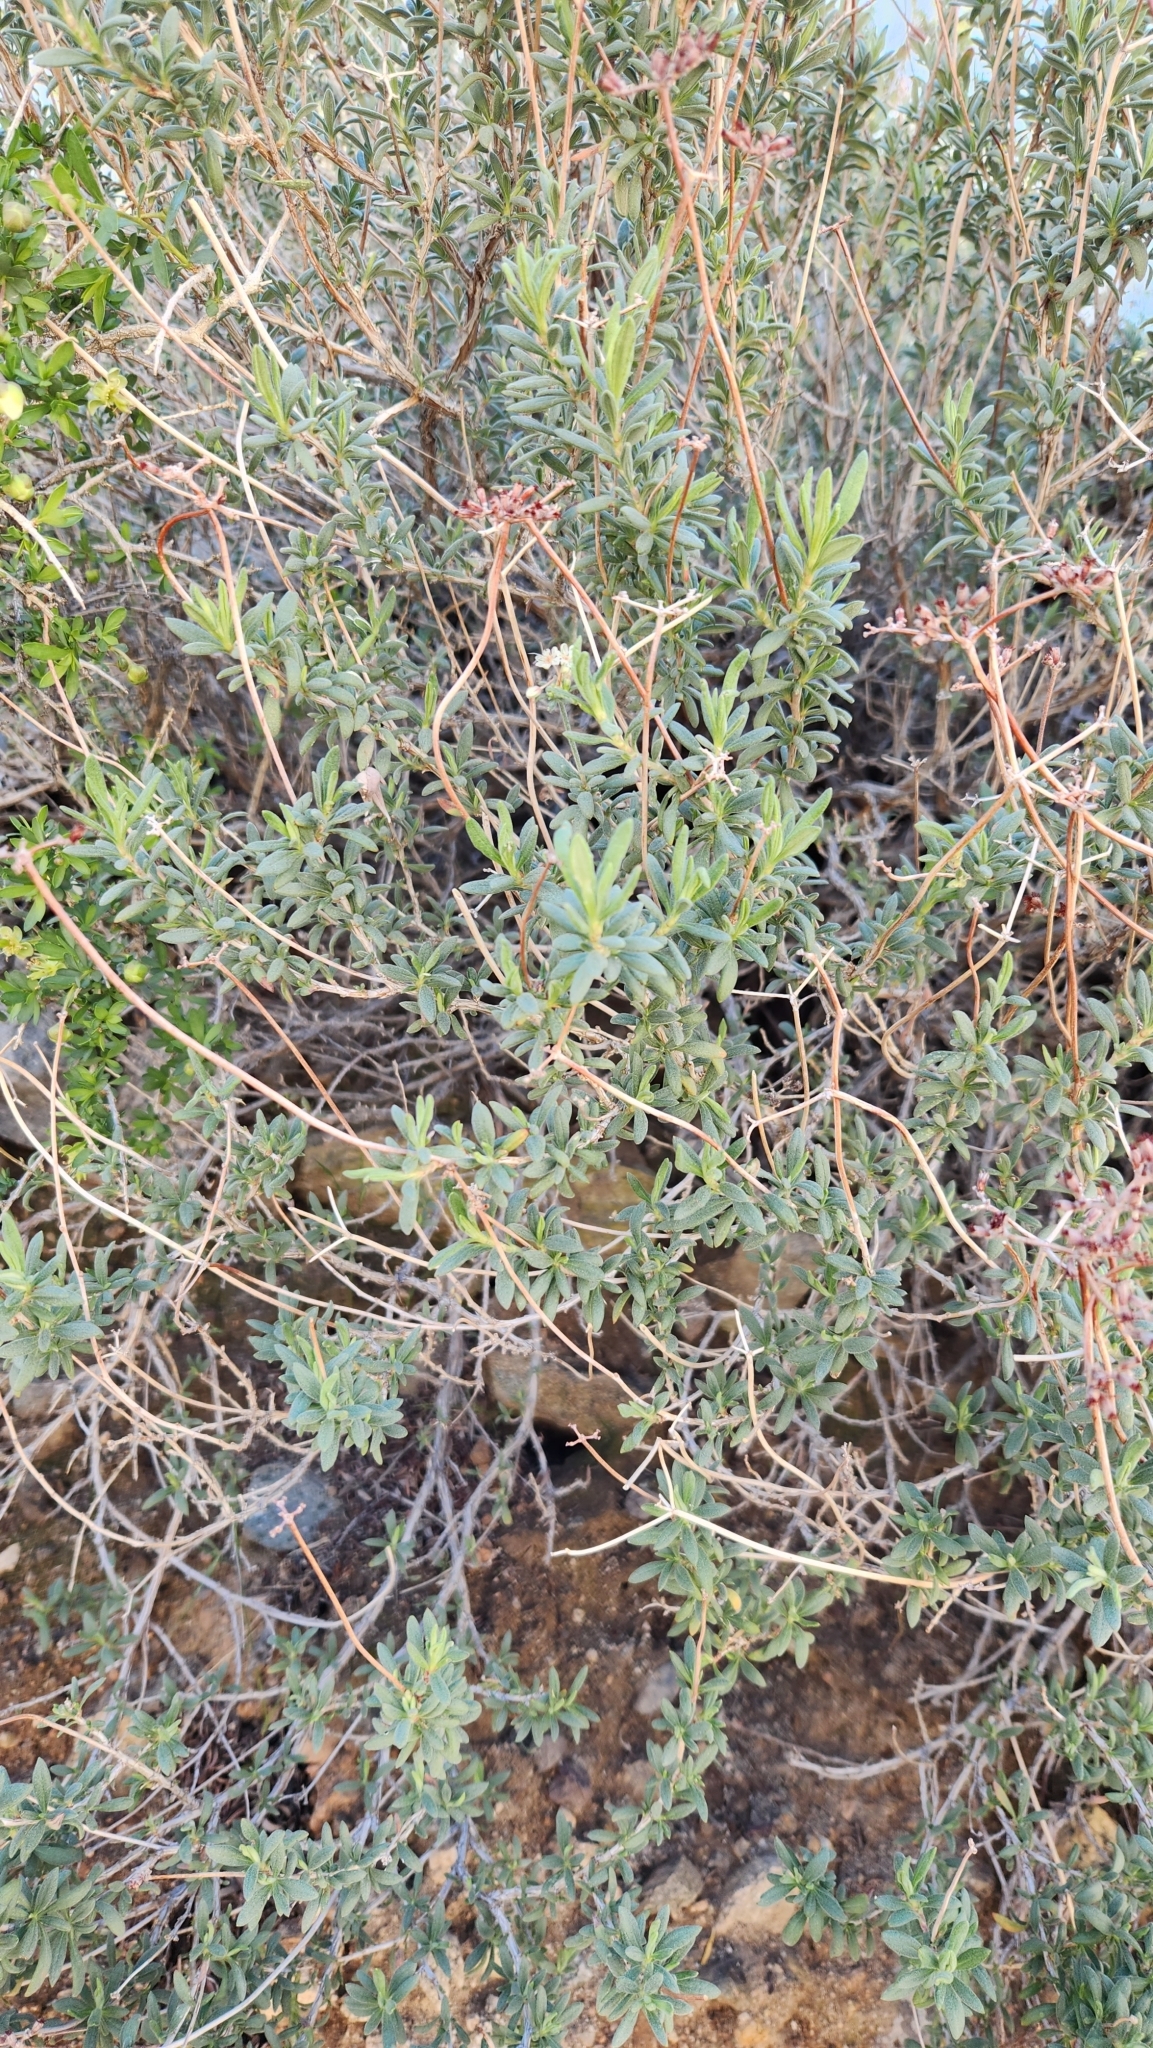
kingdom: Plantae
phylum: Tracheophyta
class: Magnoliopsida
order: Caryophyllales
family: Polygonaceae
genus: Eriogonum
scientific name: Eriogonum fasciculatum
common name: California wild buckwheat
